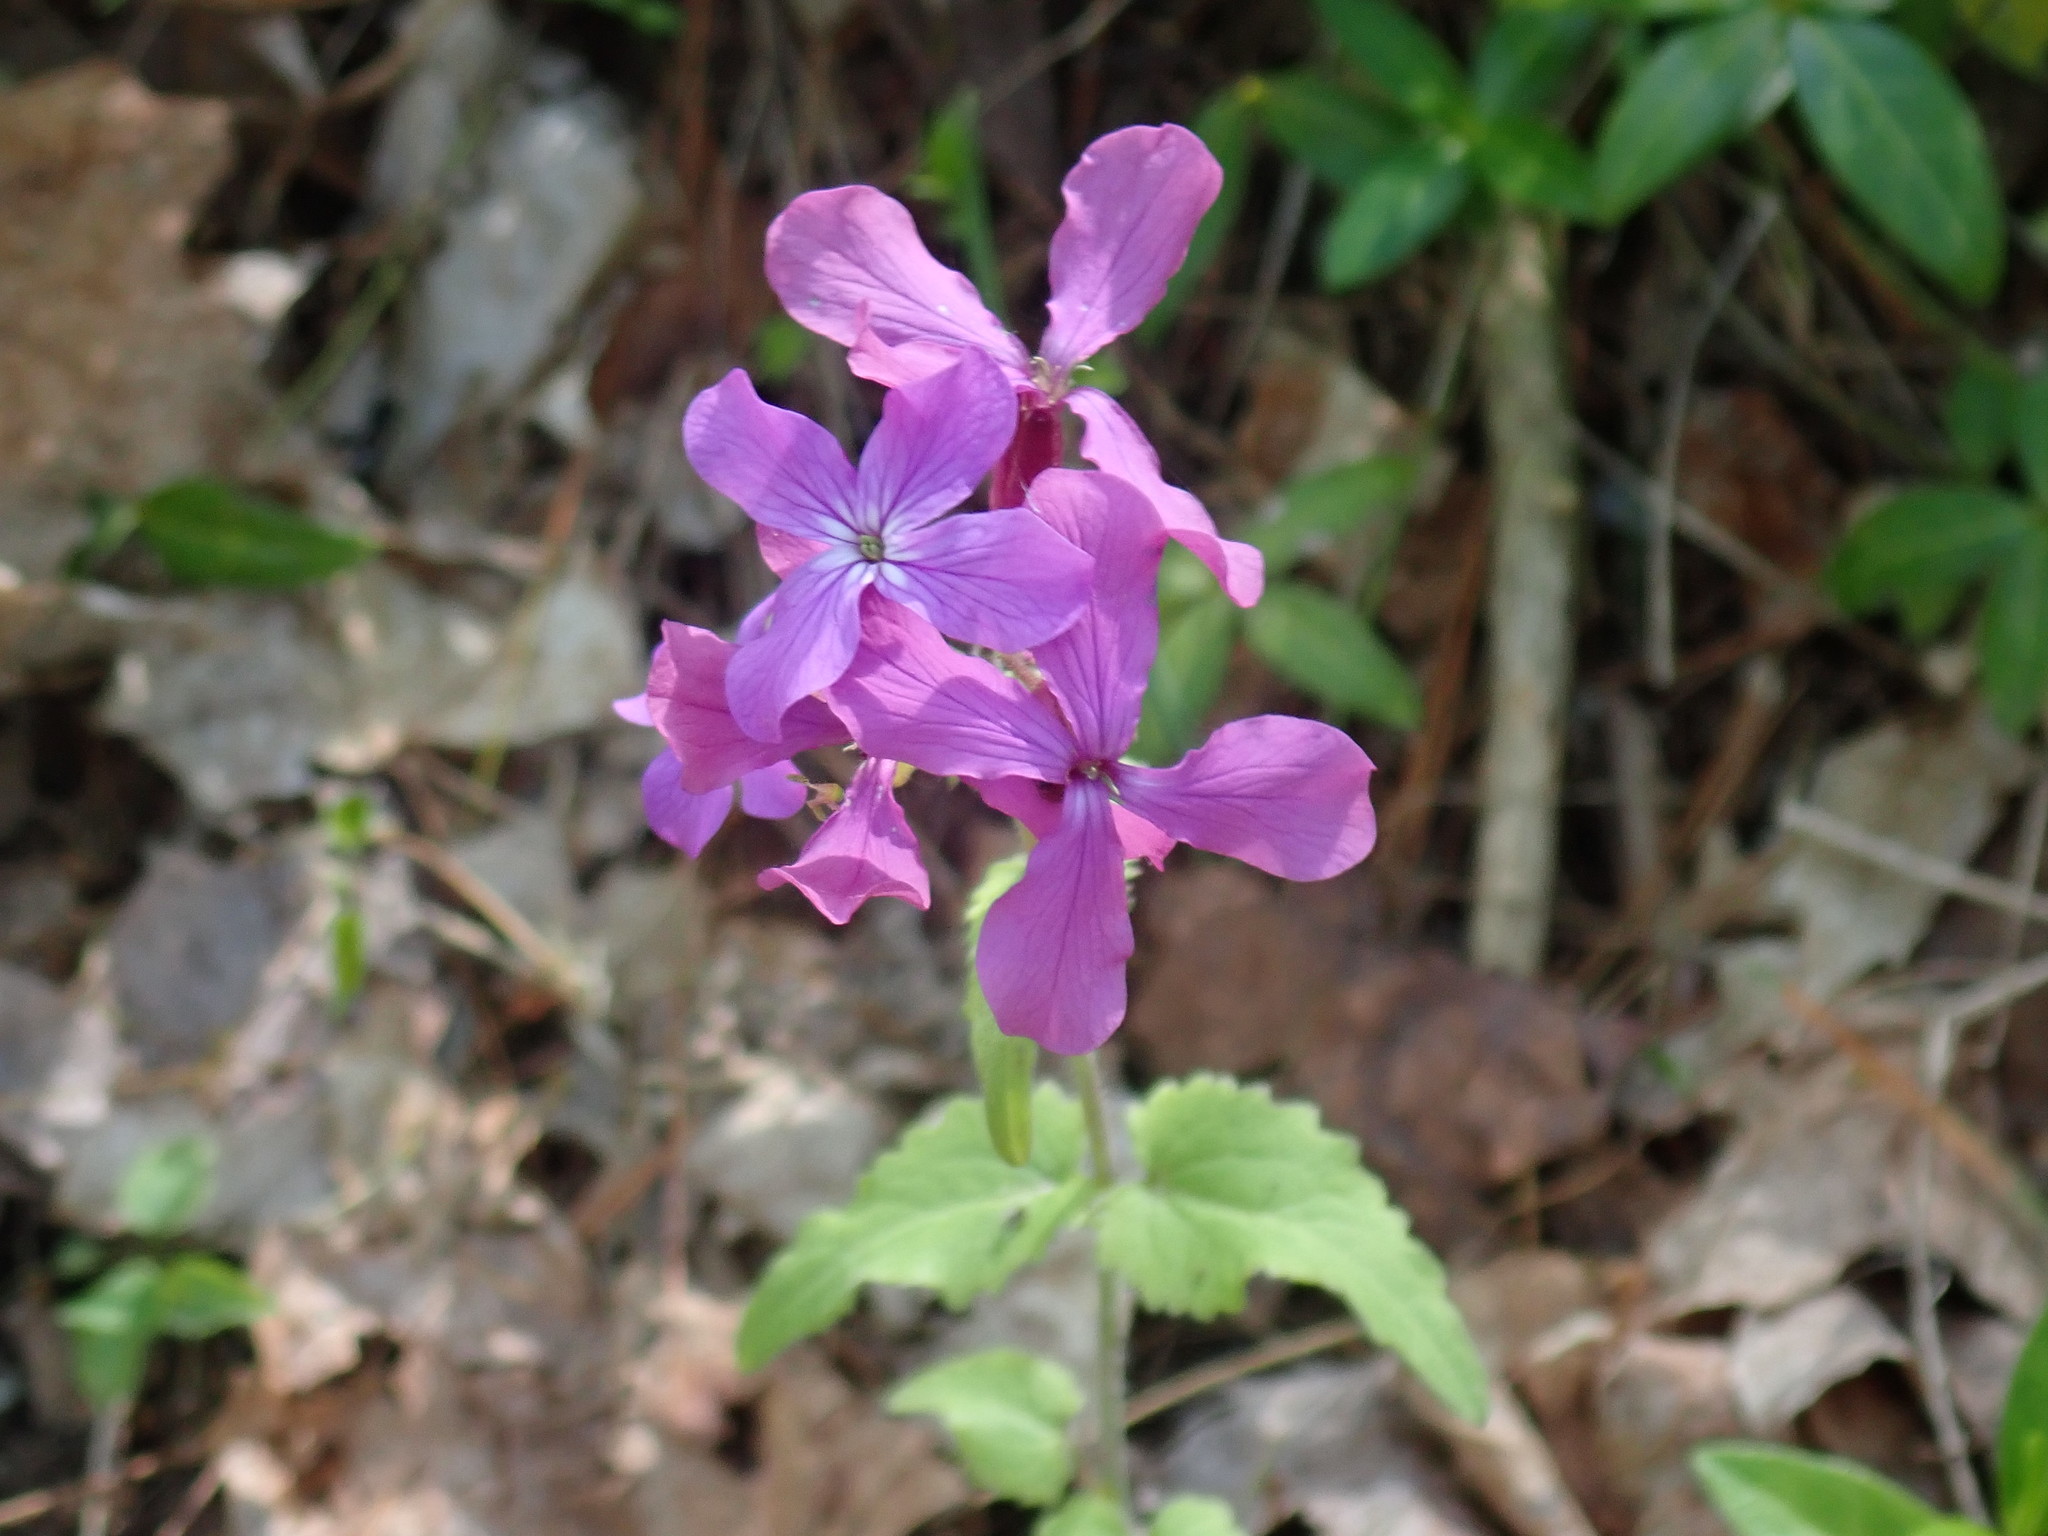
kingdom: Plantae
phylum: Tracheophyta
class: Magnoliopsida
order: Brassicales
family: Brassicaceae
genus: Lunaria
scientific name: Lunaria annua
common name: Honesty
